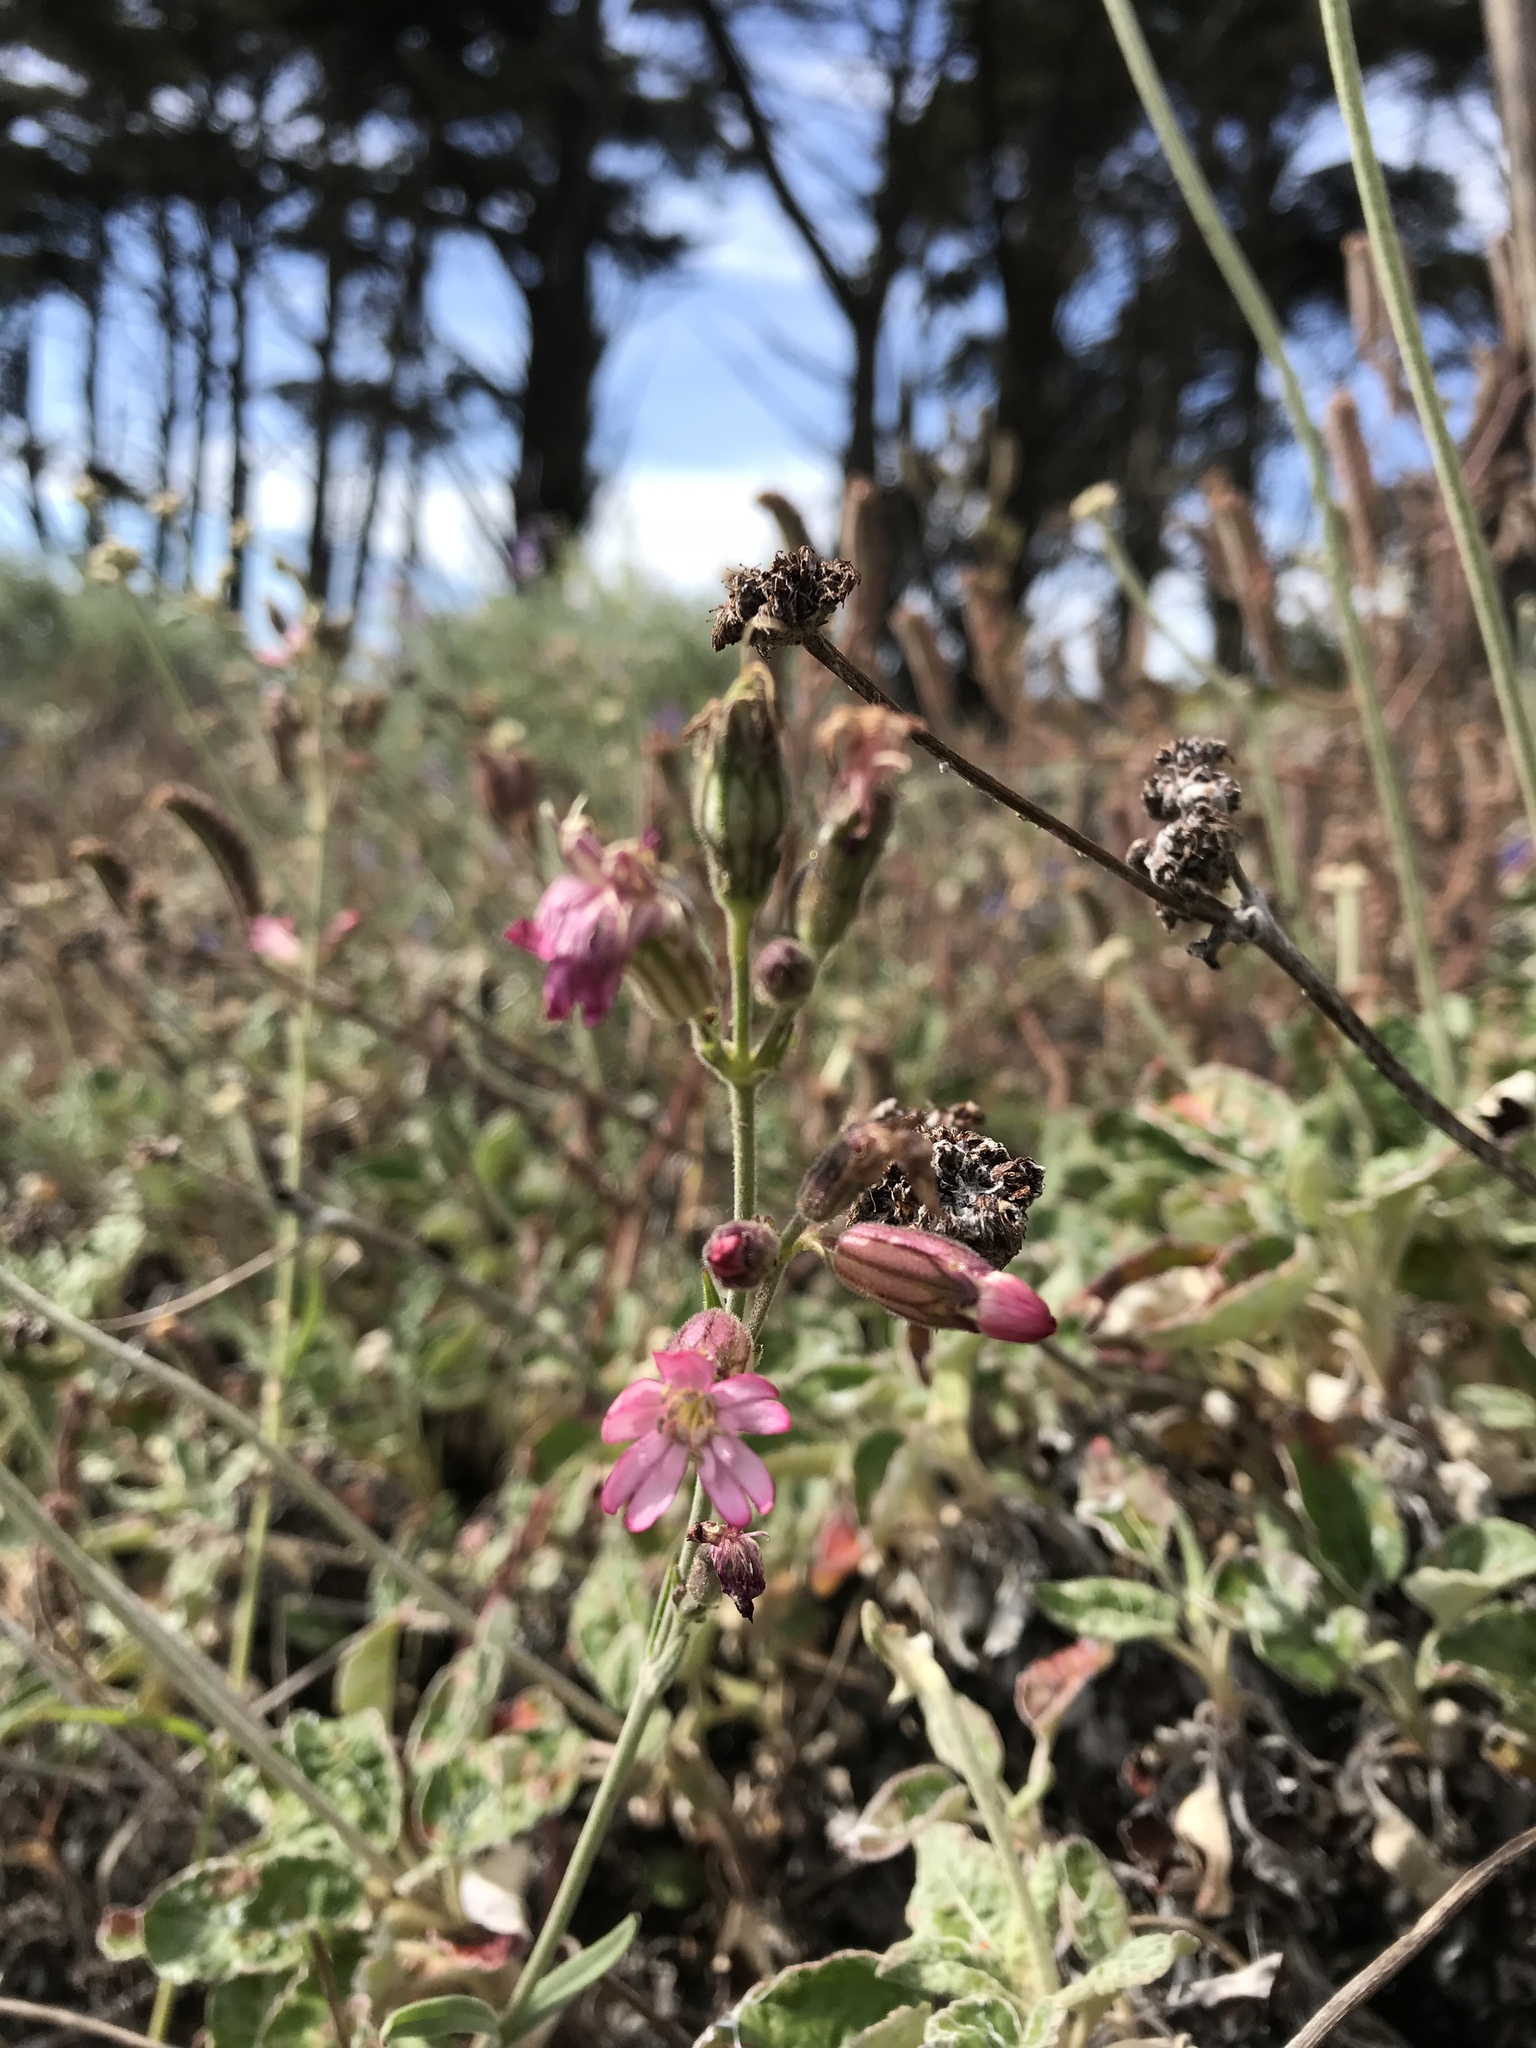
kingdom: Plantae
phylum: Tracheophyta
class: Magnoliopsida
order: Caryophyllales
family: Caryophyllaceae
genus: Silene
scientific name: Silene verecunda
